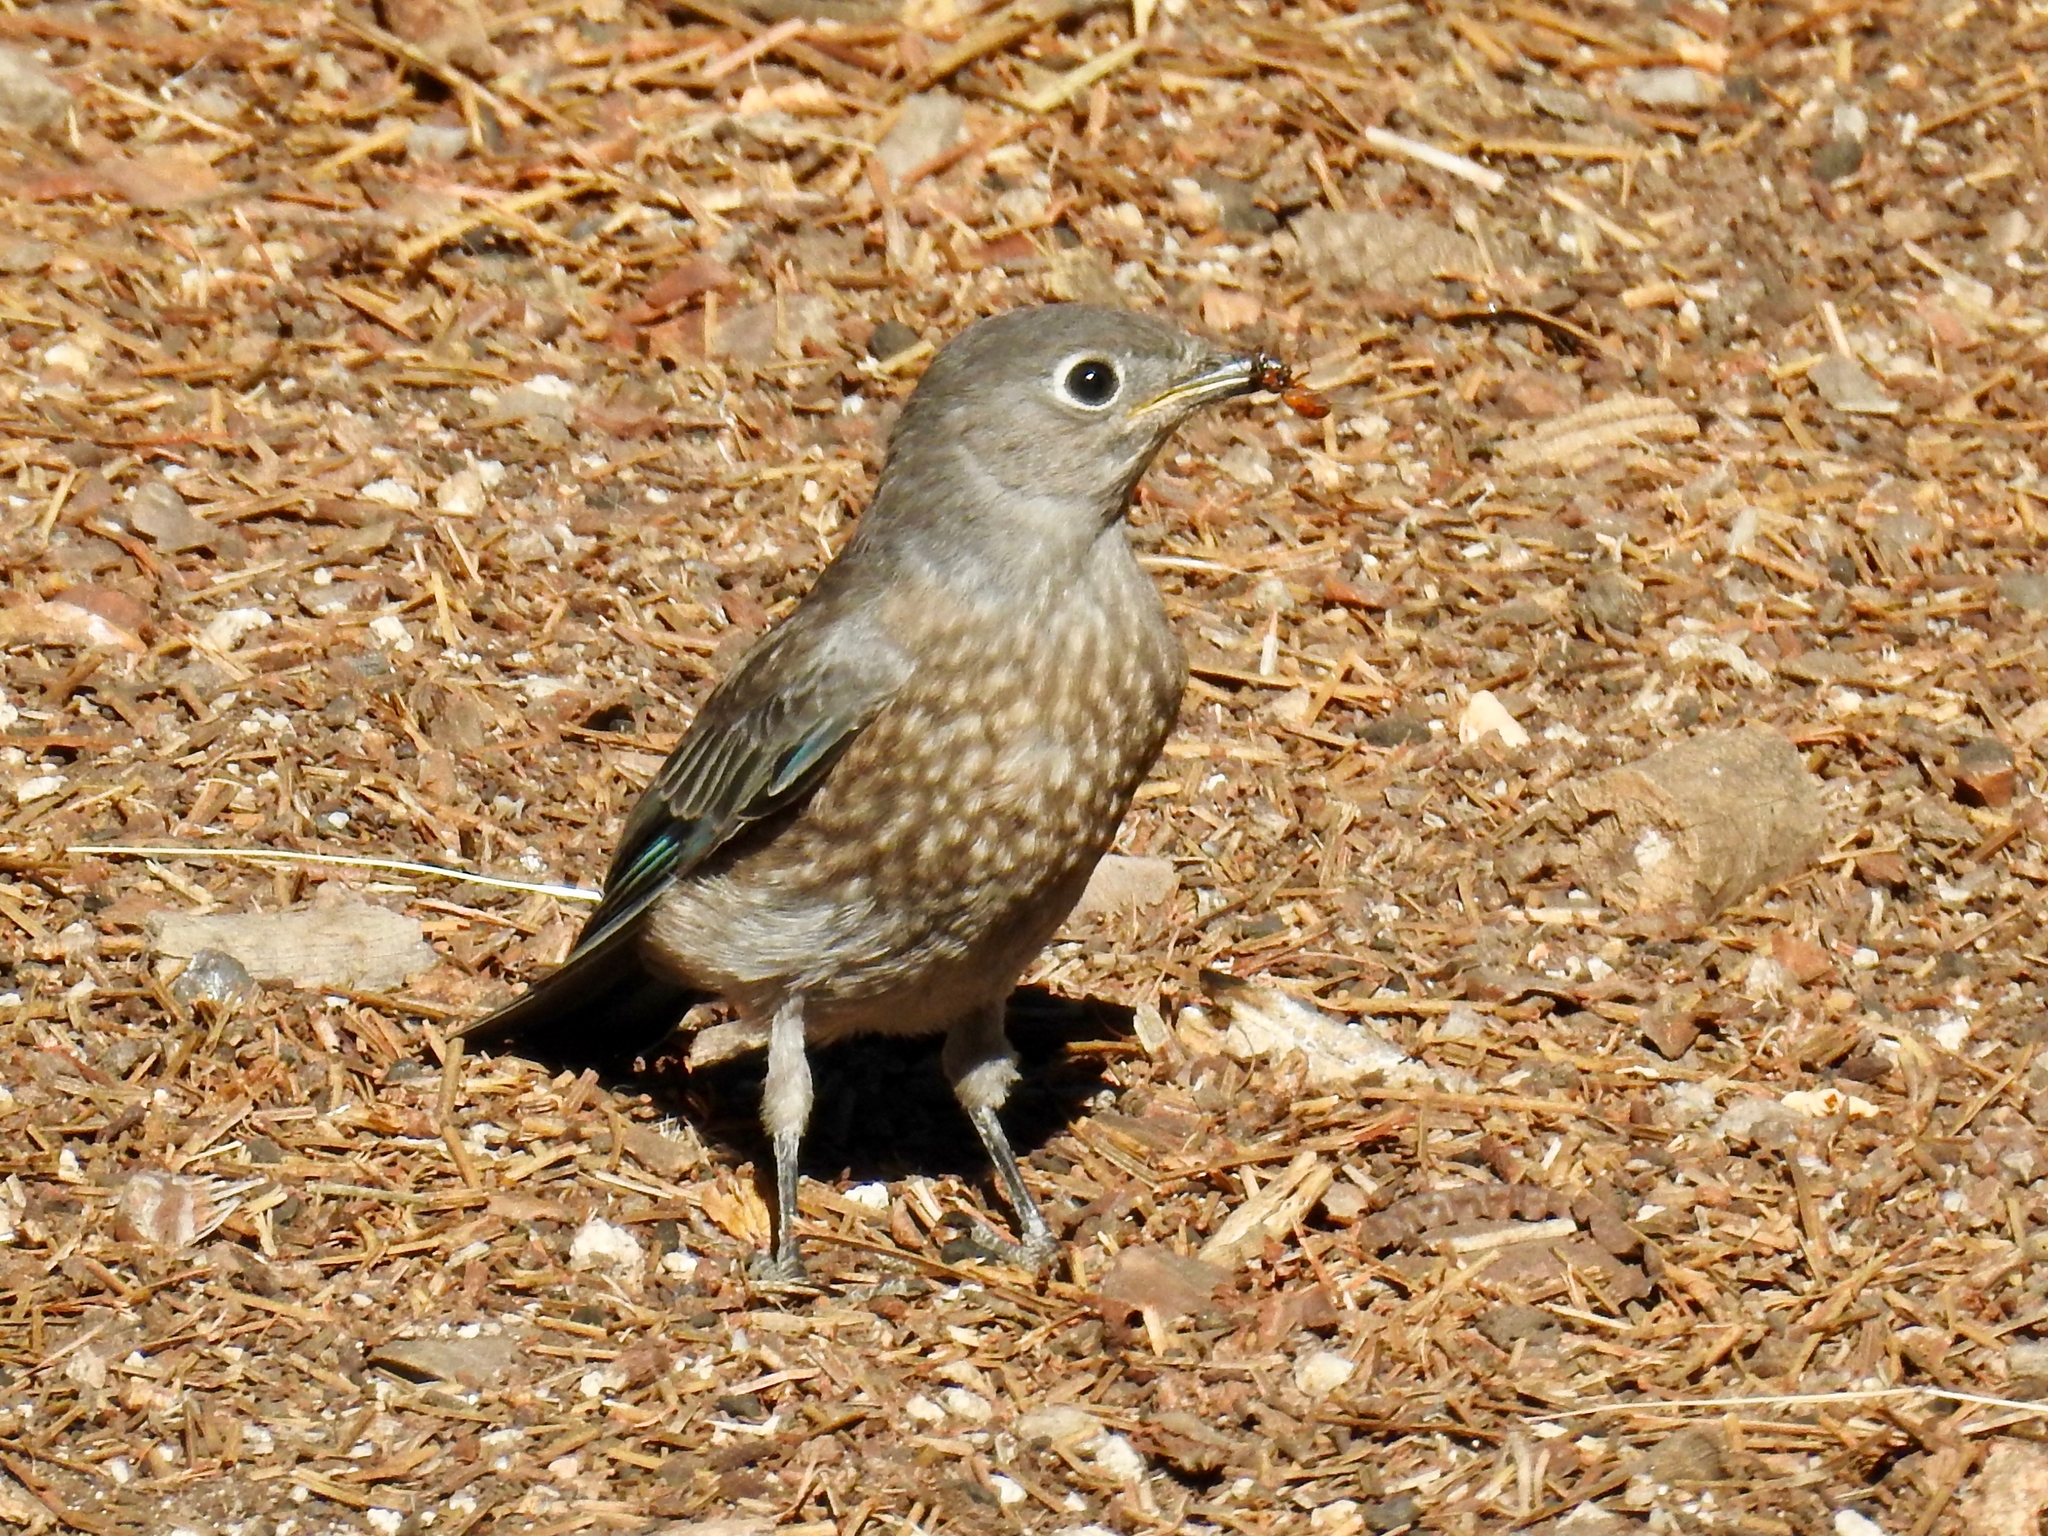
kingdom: Animalia
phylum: Chordata
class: Aves
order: Passeriformes
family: Turdidae
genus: Sialia
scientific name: Sialia mexicana
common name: Western bluebird
